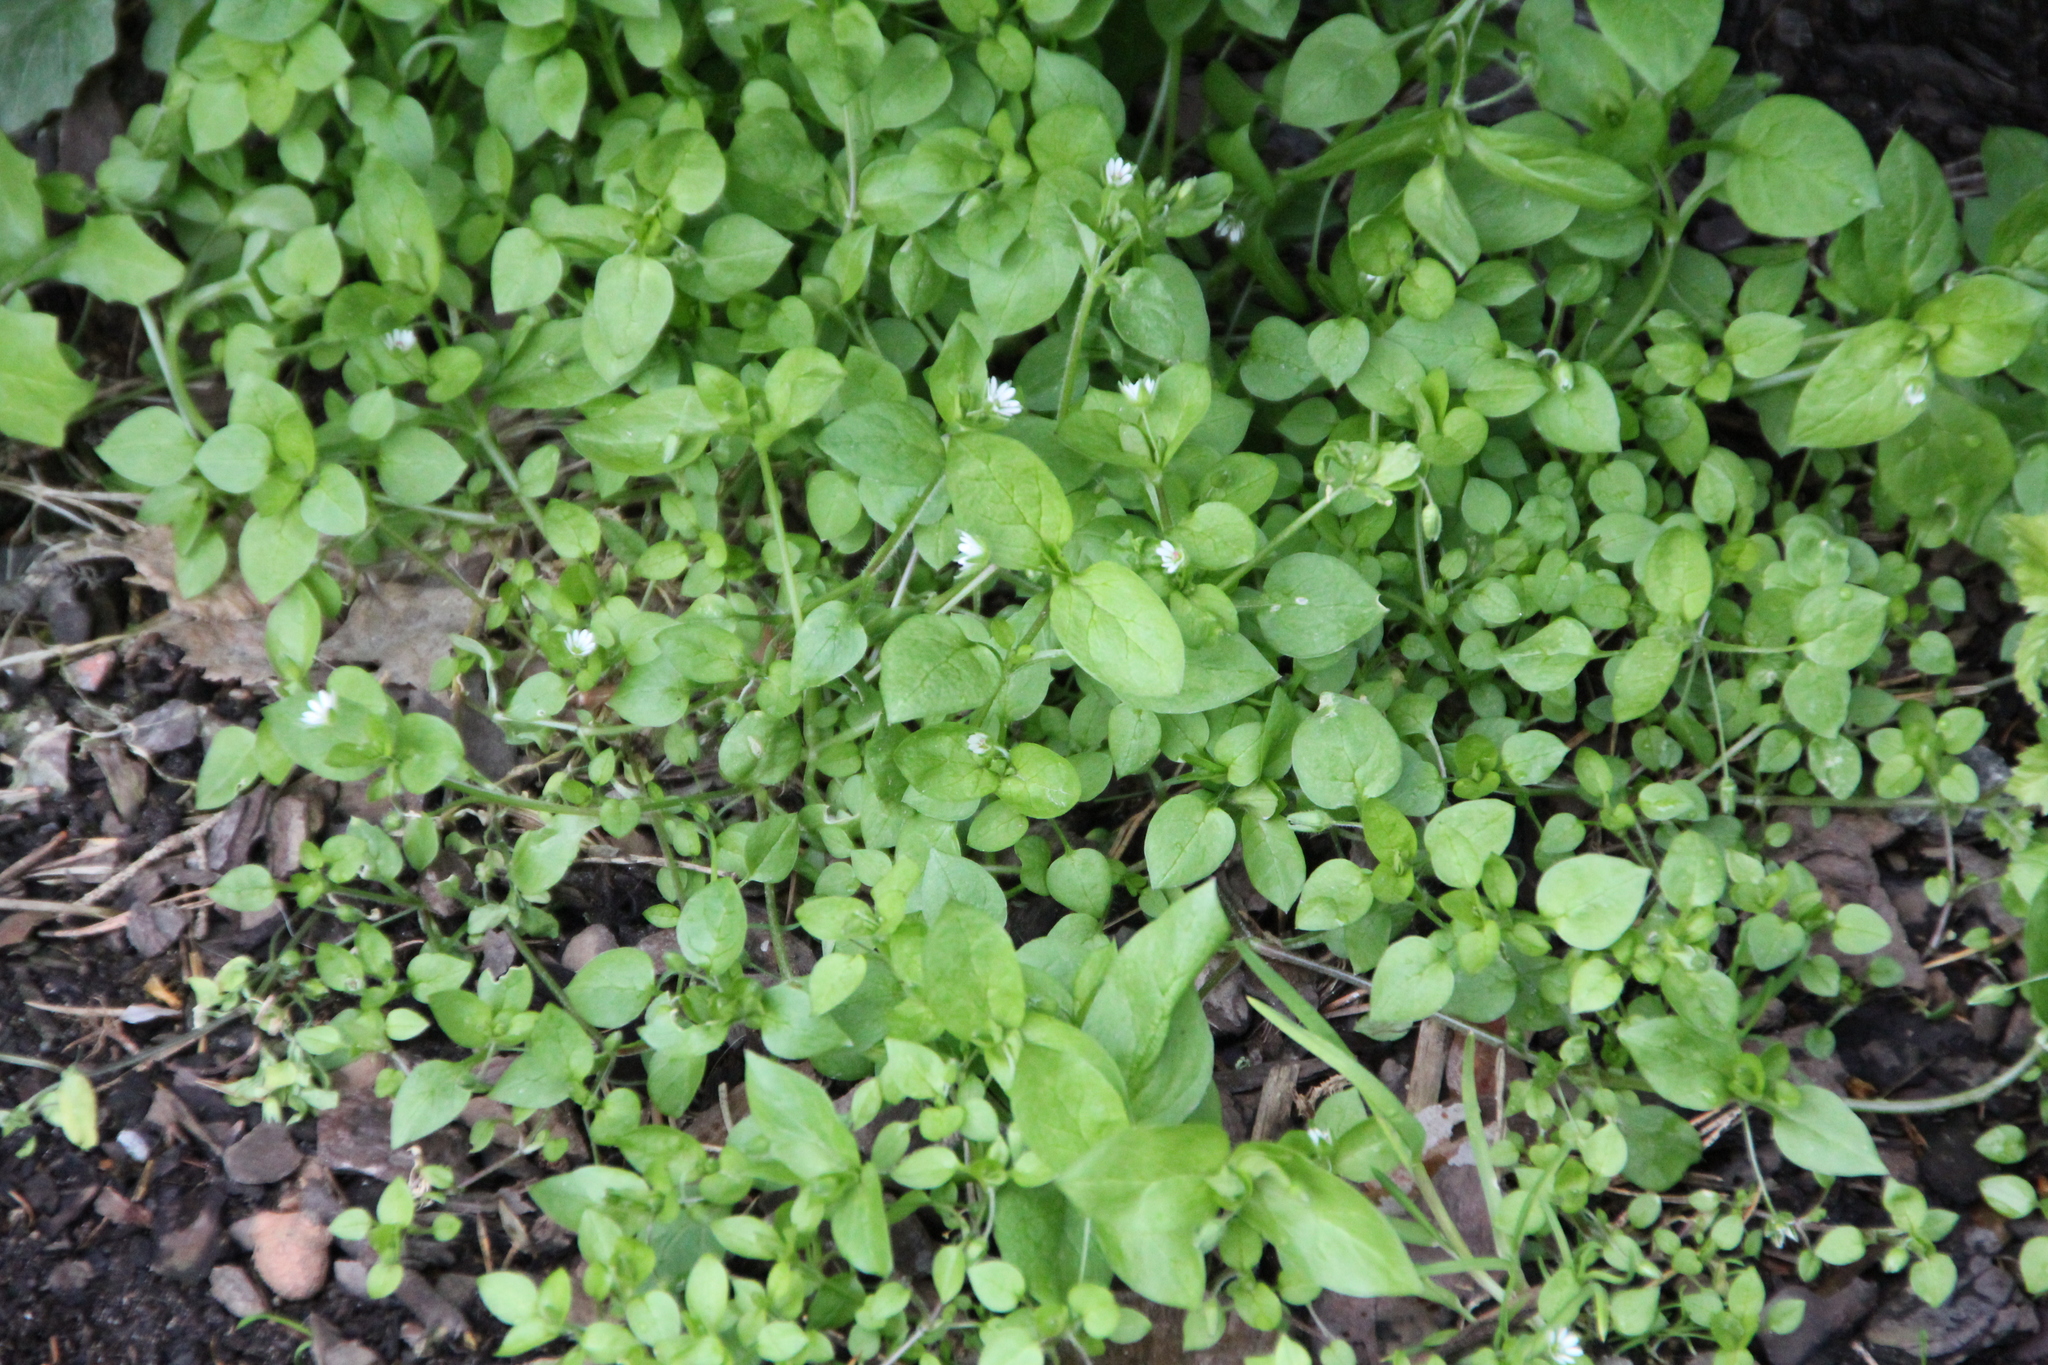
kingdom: Plantae
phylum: Tracheophyta
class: Magnoliopsida
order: Caryophyllales
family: Caryophyllaceae
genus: Stellaria
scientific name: Stellaria media
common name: Common chickweed
